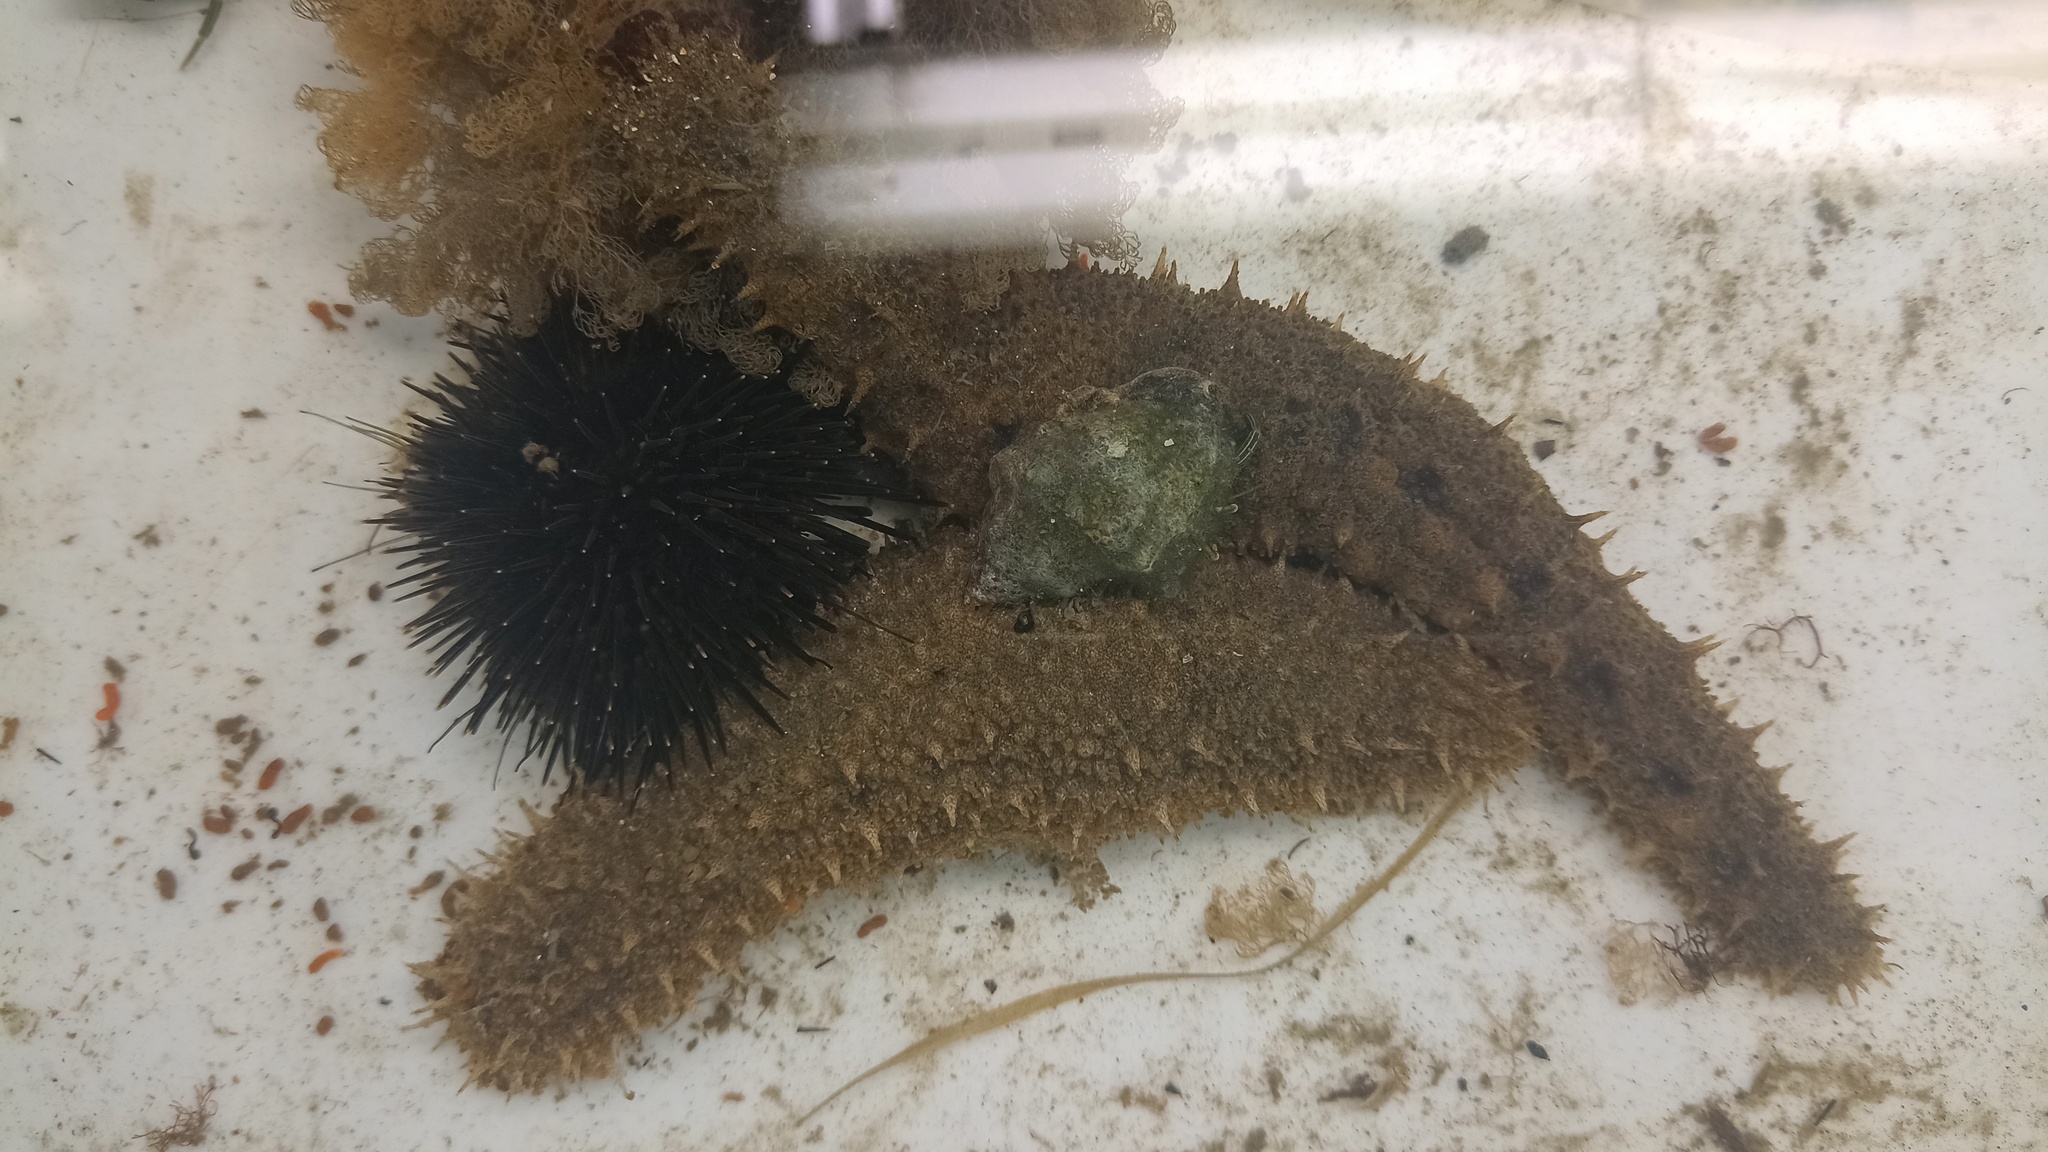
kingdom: Animalia
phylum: Echinodermata
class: Holothuroidea
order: Holothuriida
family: Holothuriidae
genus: Holothuria
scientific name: Holothuria grisea
